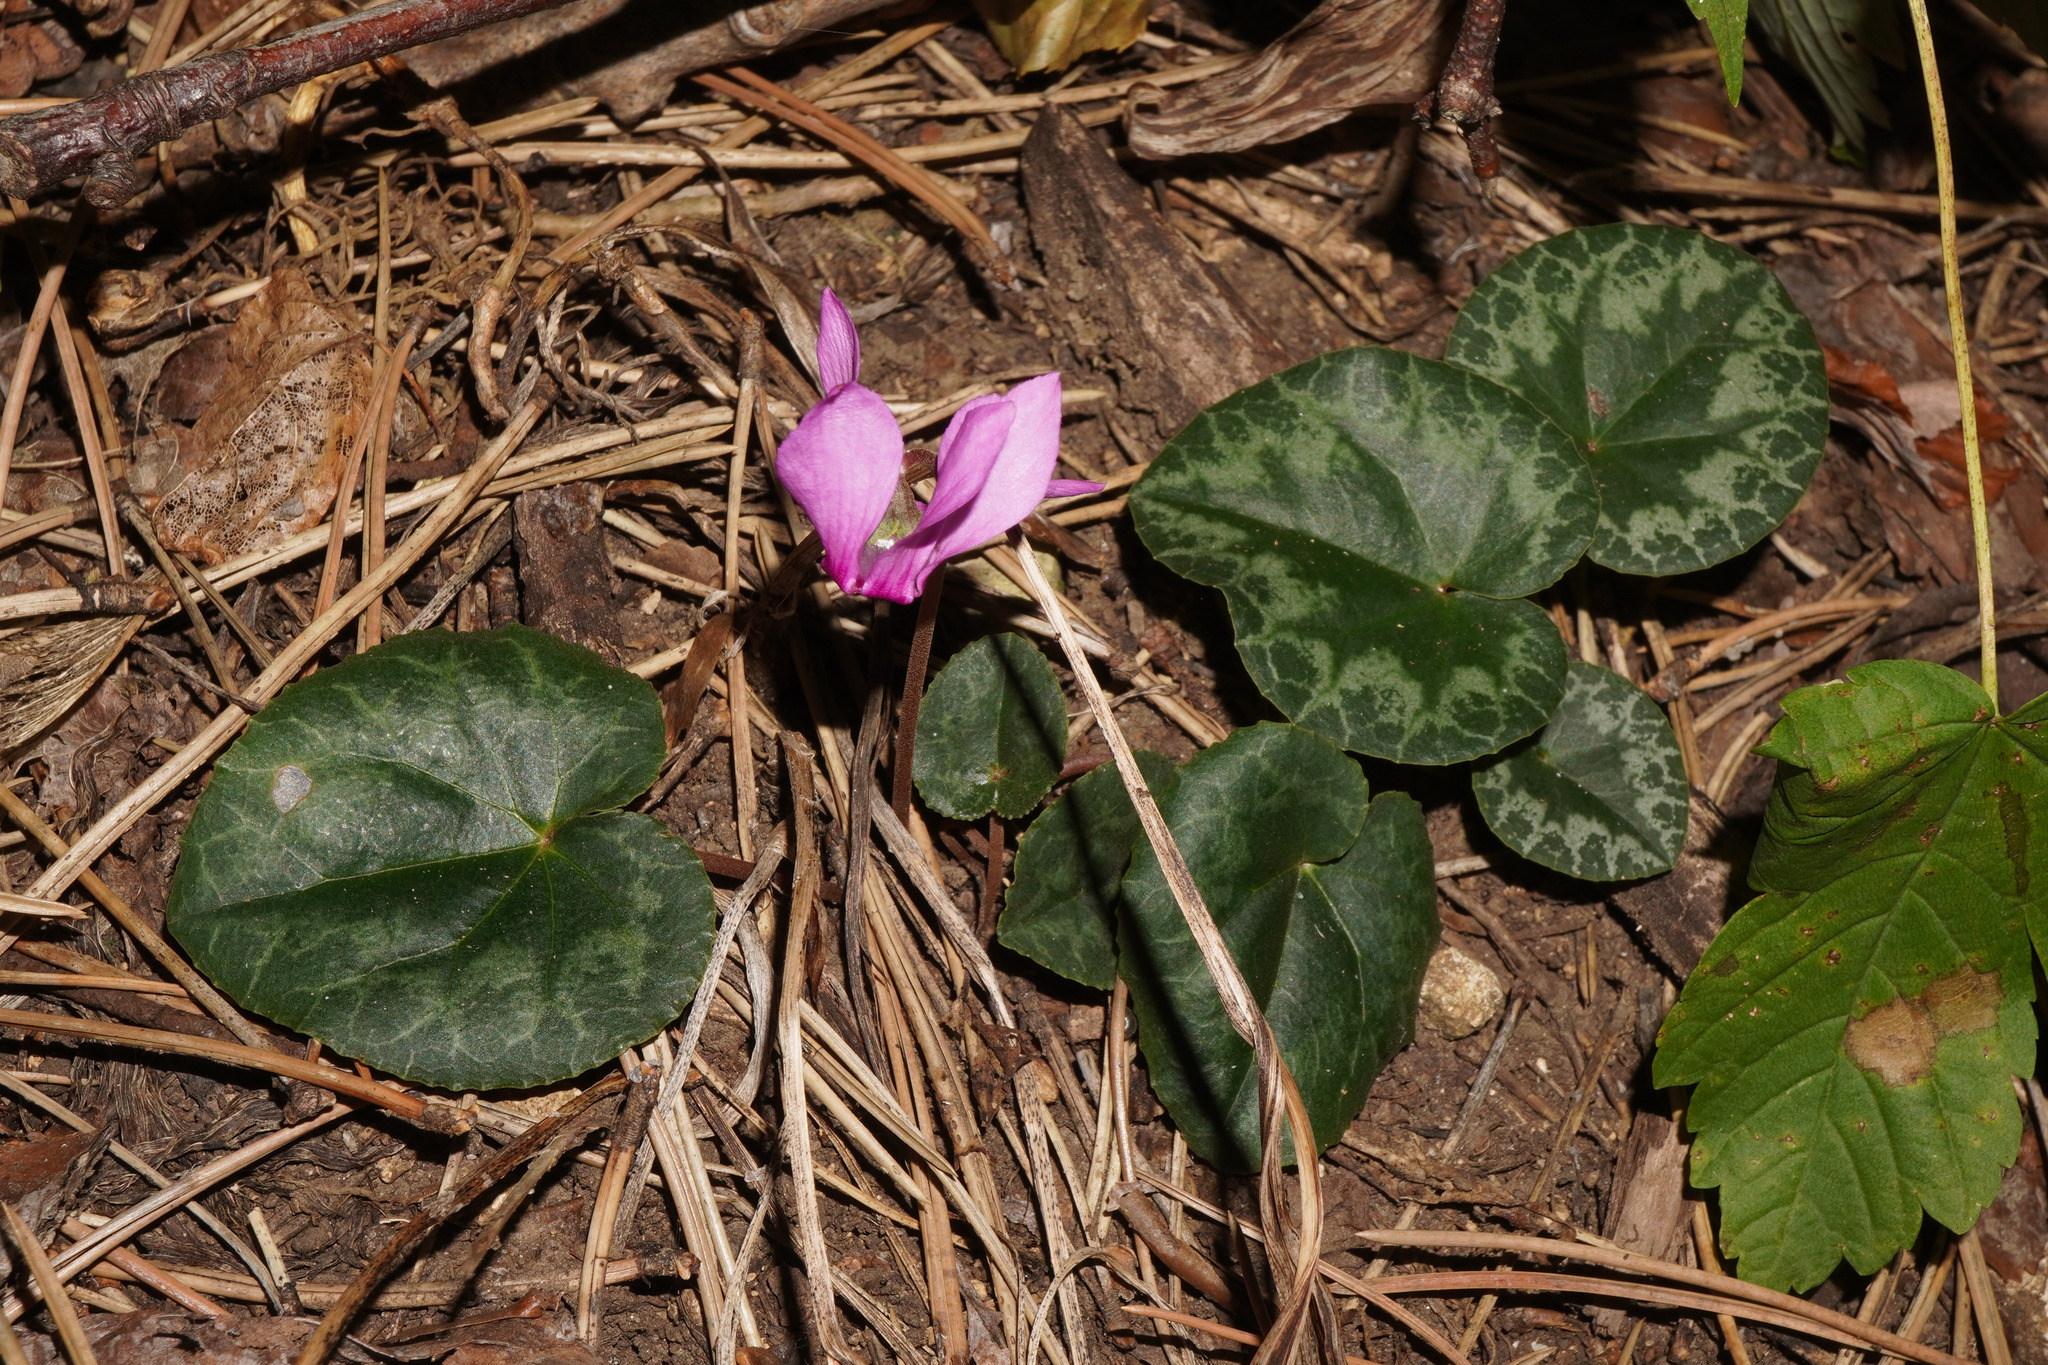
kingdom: Plantae
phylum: Tracheophyta
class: Magnoliopsida
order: Ericales
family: Primulaceae
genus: Cyclamen
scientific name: Cyclamen purpurascens
